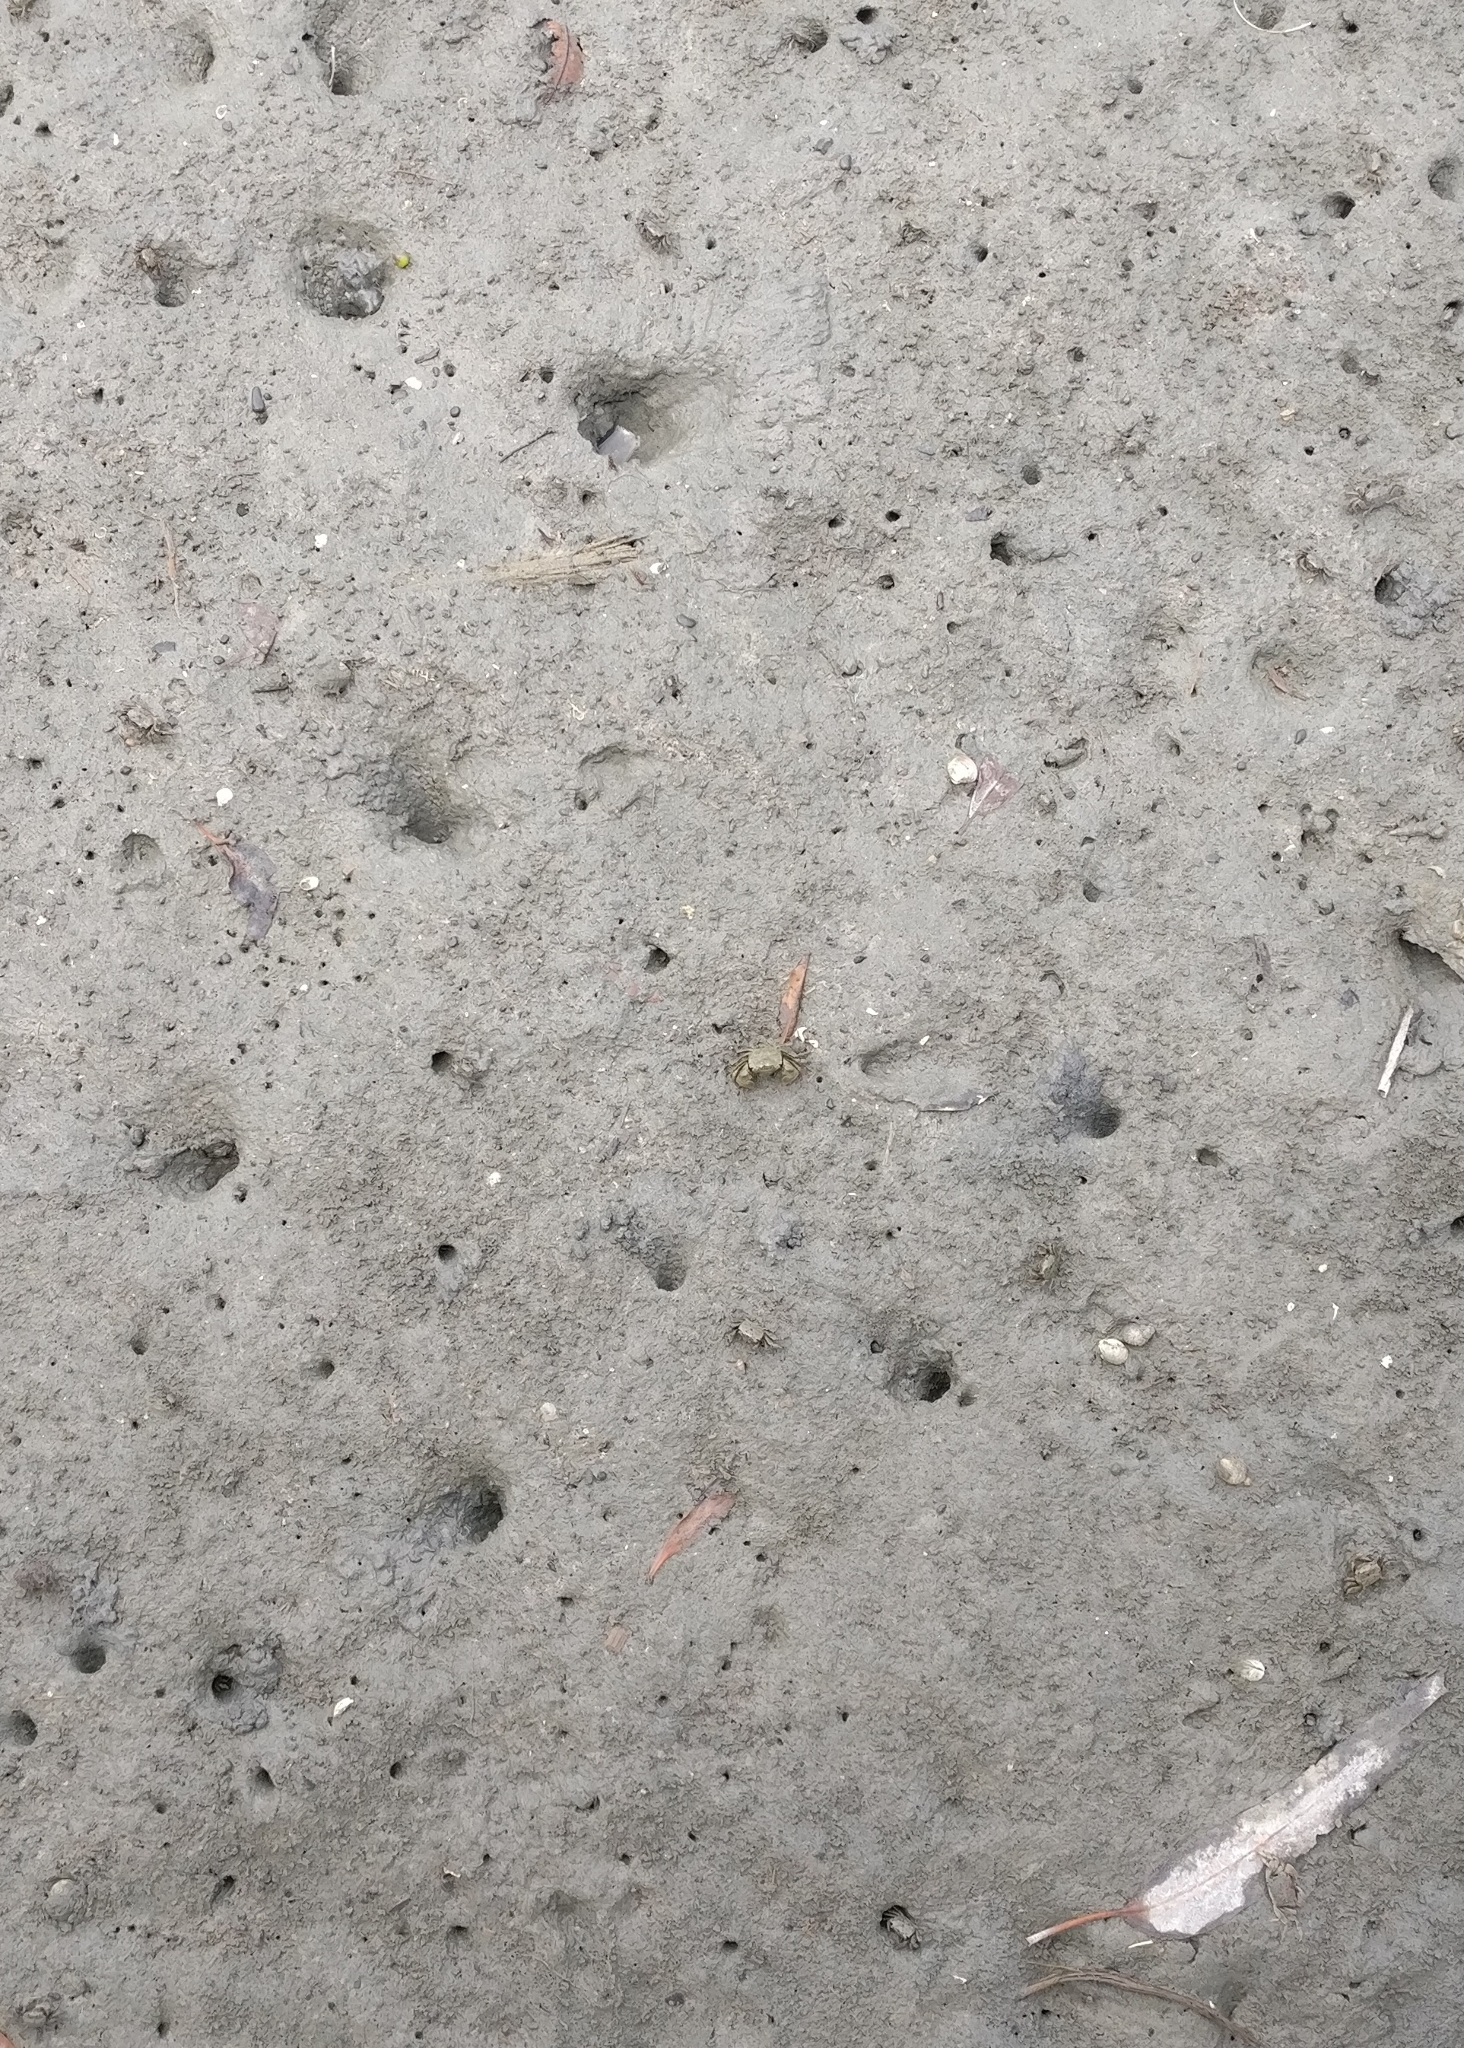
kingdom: Animalia
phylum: Arthropoda
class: Malacostraca
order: Decapoda
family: Varunidae
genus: Austrohelice
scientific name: Austrohelice crassa
